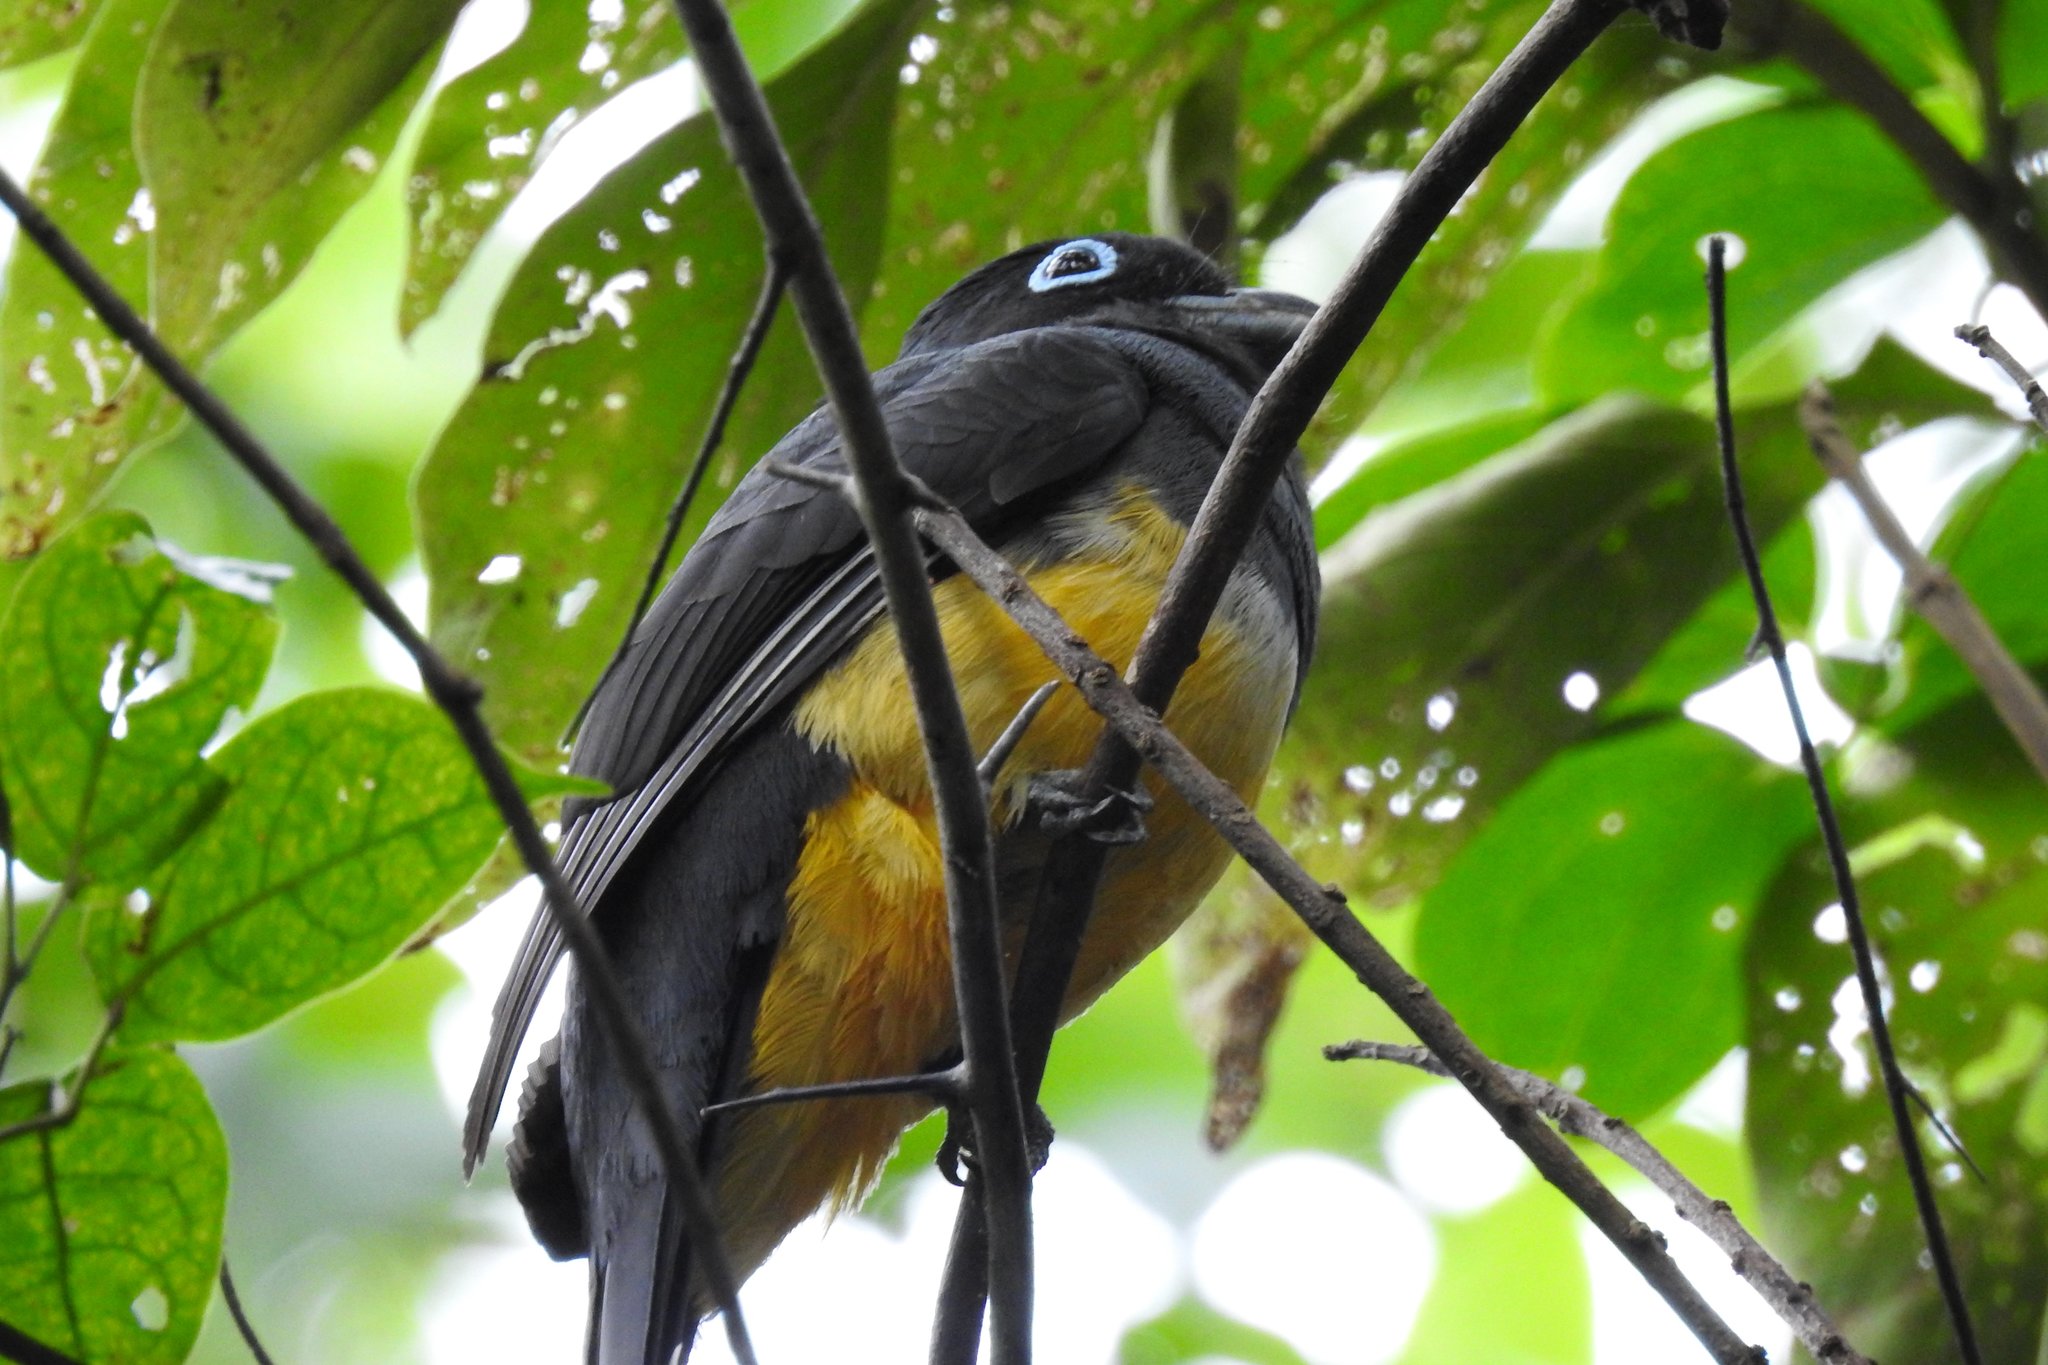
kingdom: Animalia
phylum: Chordata
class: Aves
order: Trogoniformes
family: Trogonidae
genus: Trogon
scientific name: Trogon melanocephalus
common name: Black-headed trogon
